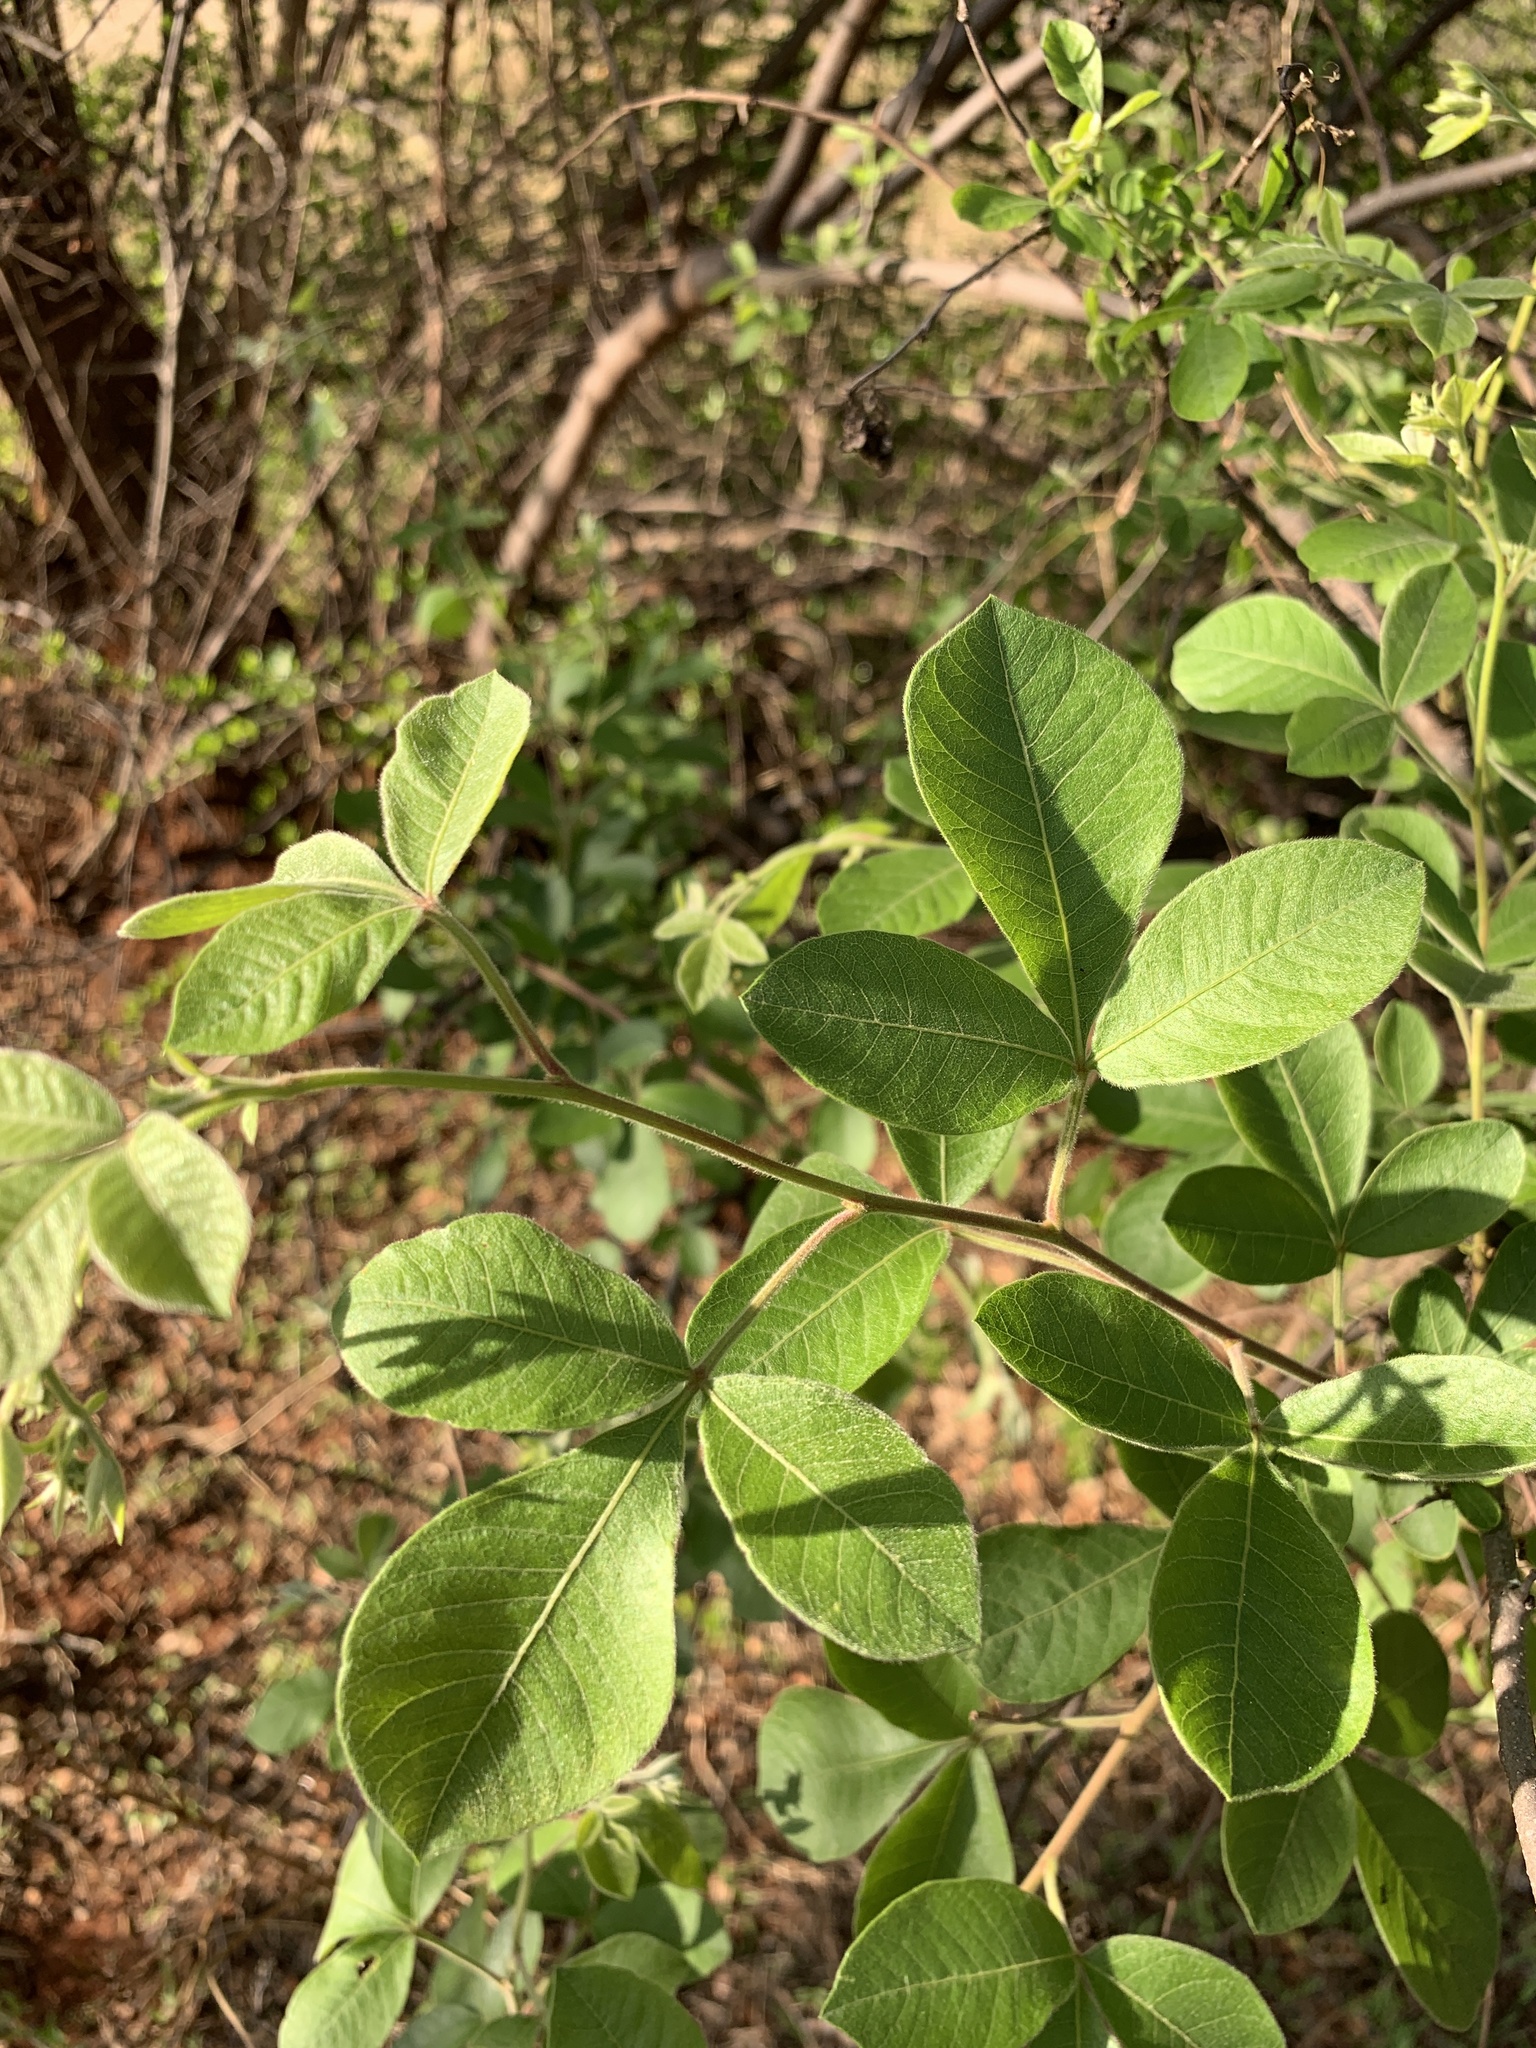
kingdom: Plantae
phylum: Tracheophyta
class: Magnoliopsida
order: Sapindales
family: Anacardiaceae
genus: Searsia
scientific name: Searsia pyroides
